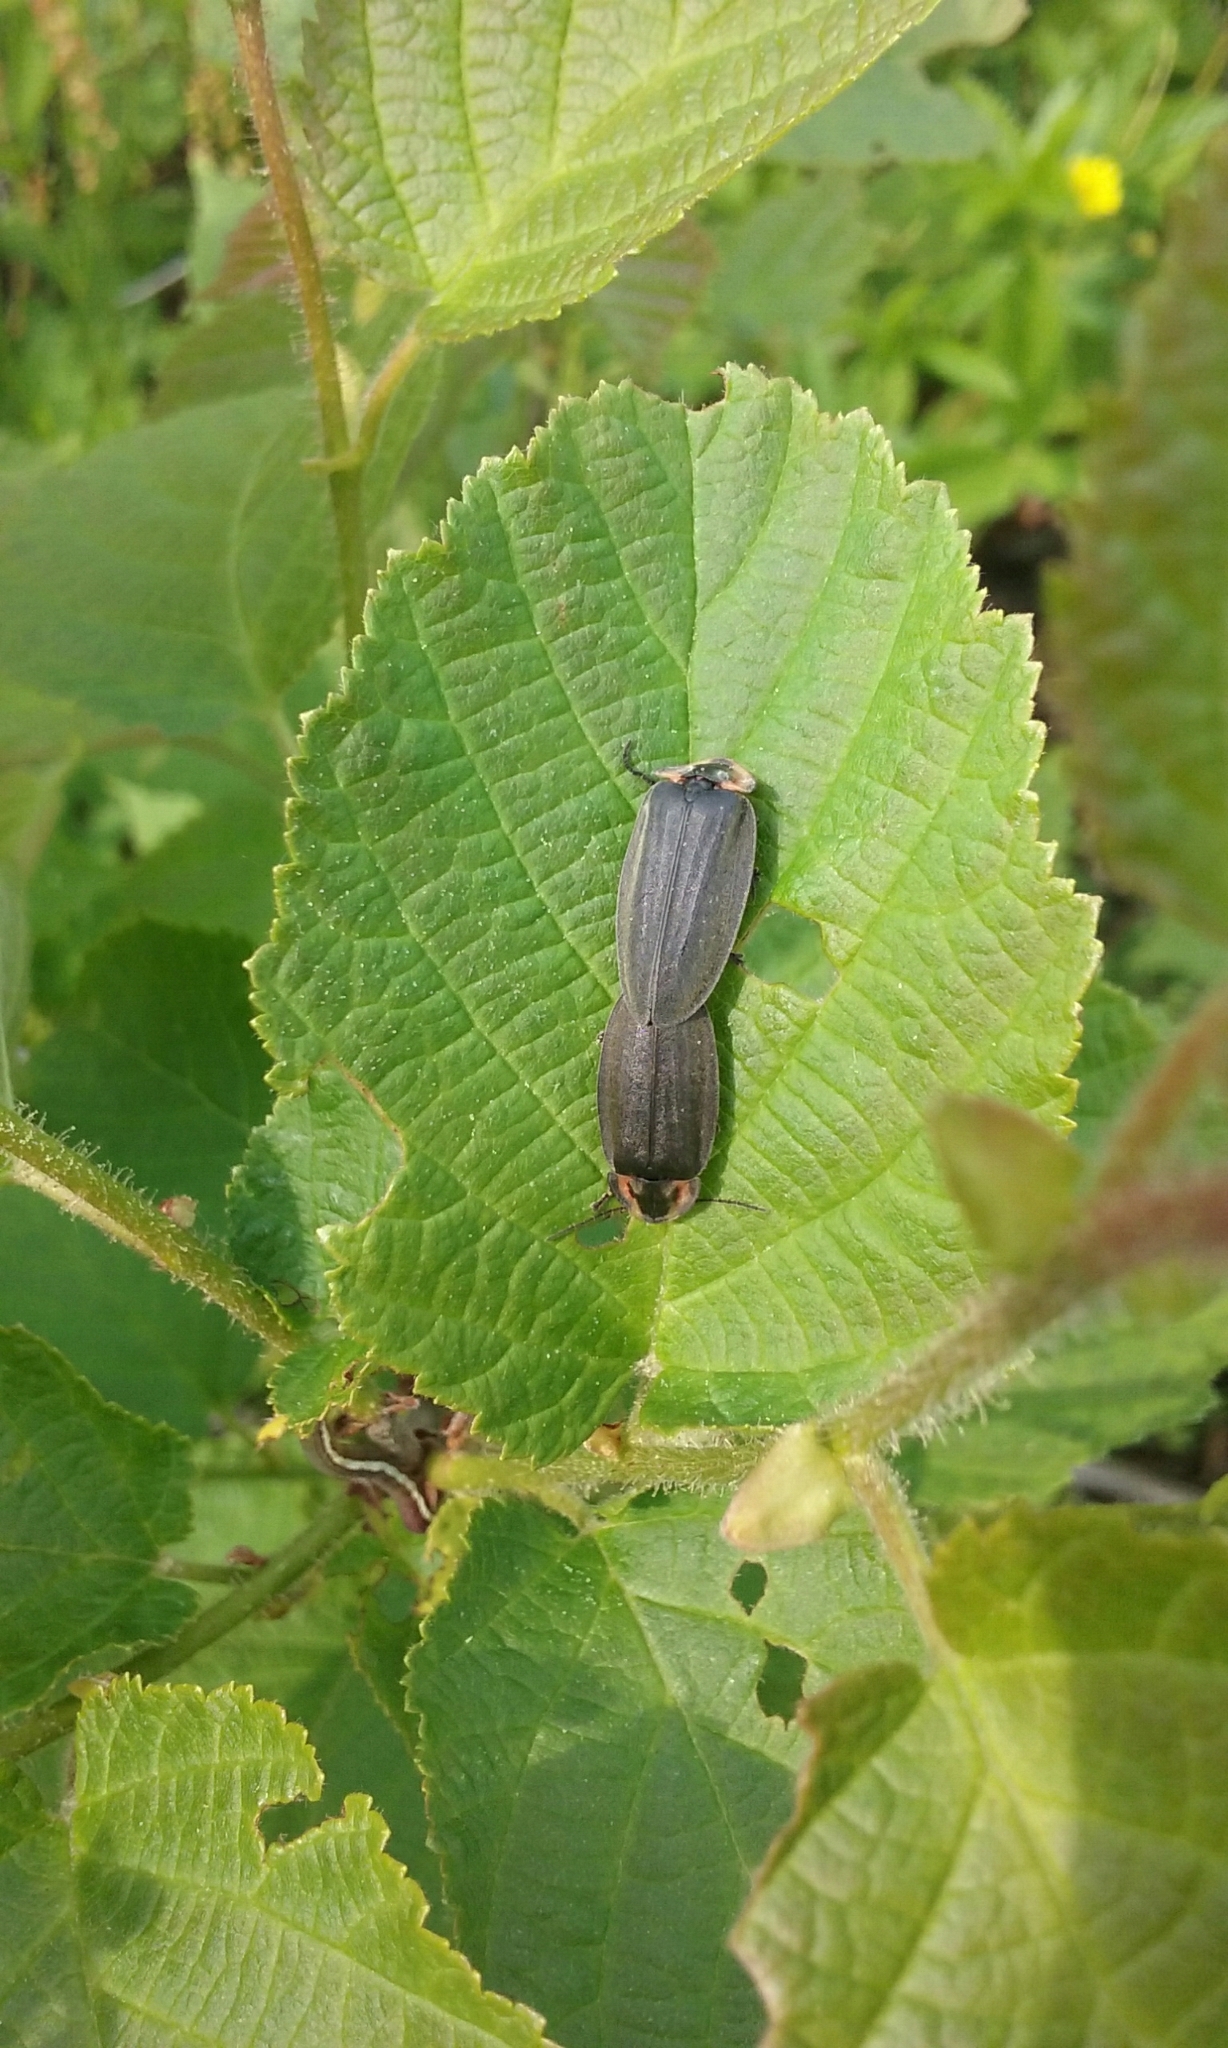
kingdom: Animalia
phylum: Arthropoda
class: Insecta
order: Coleoptera
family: Lampyridae
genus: Photinus
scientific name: Photinus corrusca
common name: Winter firefly
